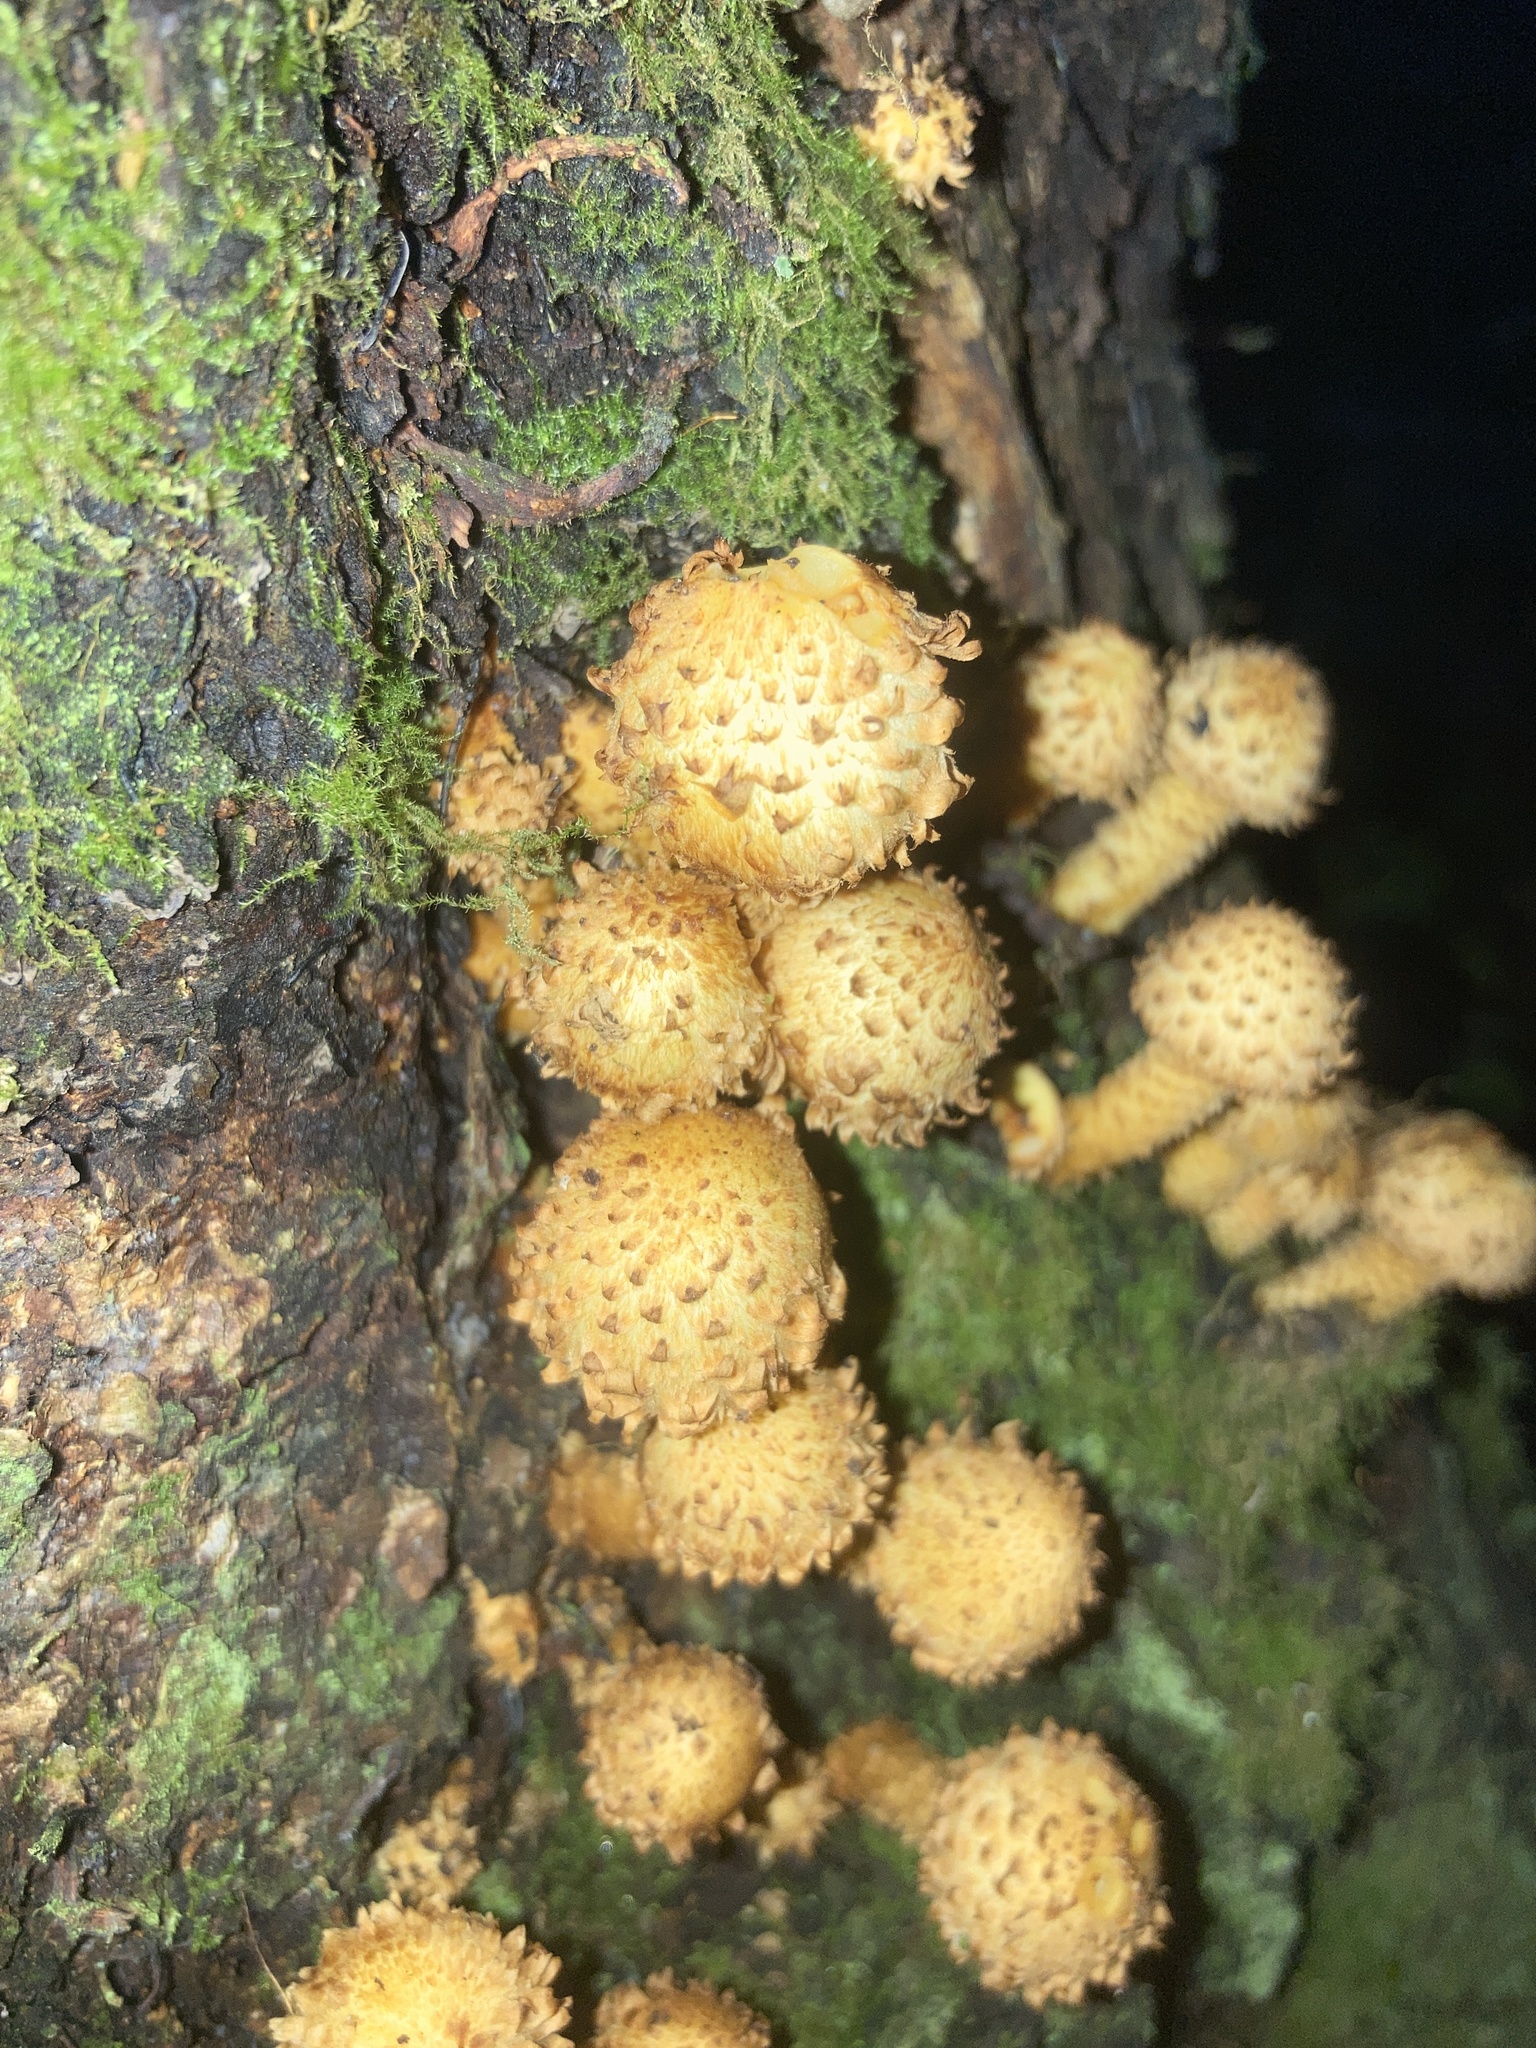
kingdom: Fungi
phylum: Basidiomycota
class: Agaricomycetes
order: Agaricales
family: Strophariaceae
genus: Pholiota
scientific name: Pholiota squarrosa
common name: Shaggy pholiota
